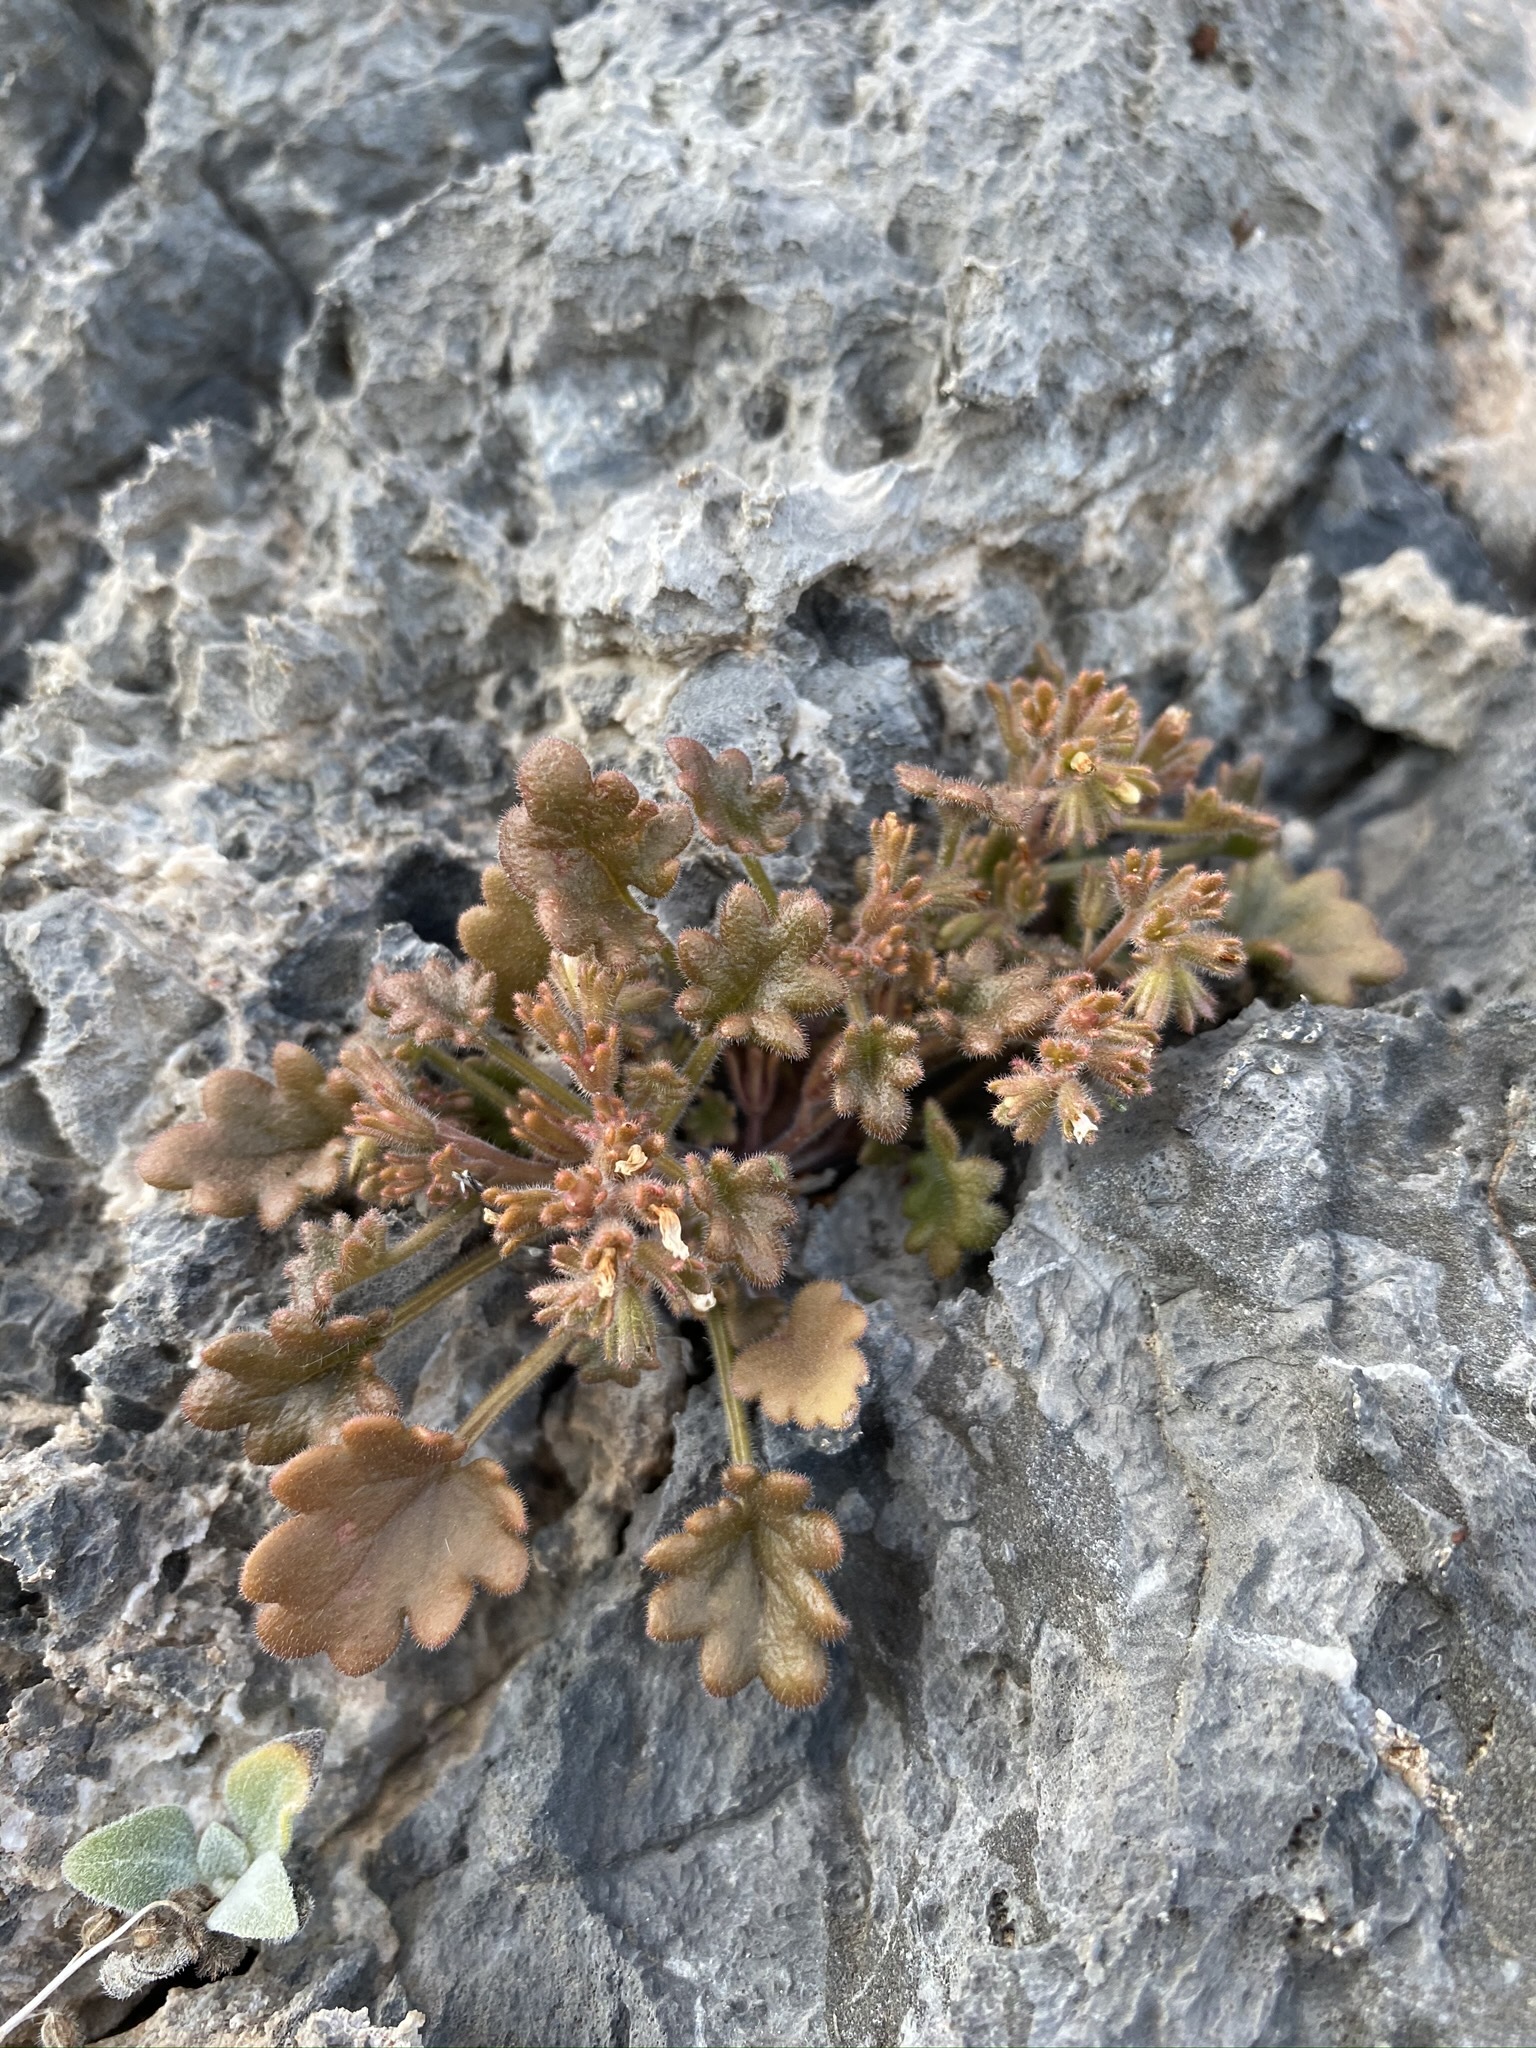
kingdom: Plantae
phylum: Tracheophyta
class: Magnoliopsida
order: Boraginales
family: Hydrophyllaceae
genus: Phacelia
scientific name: Phacelia rotundifolia
